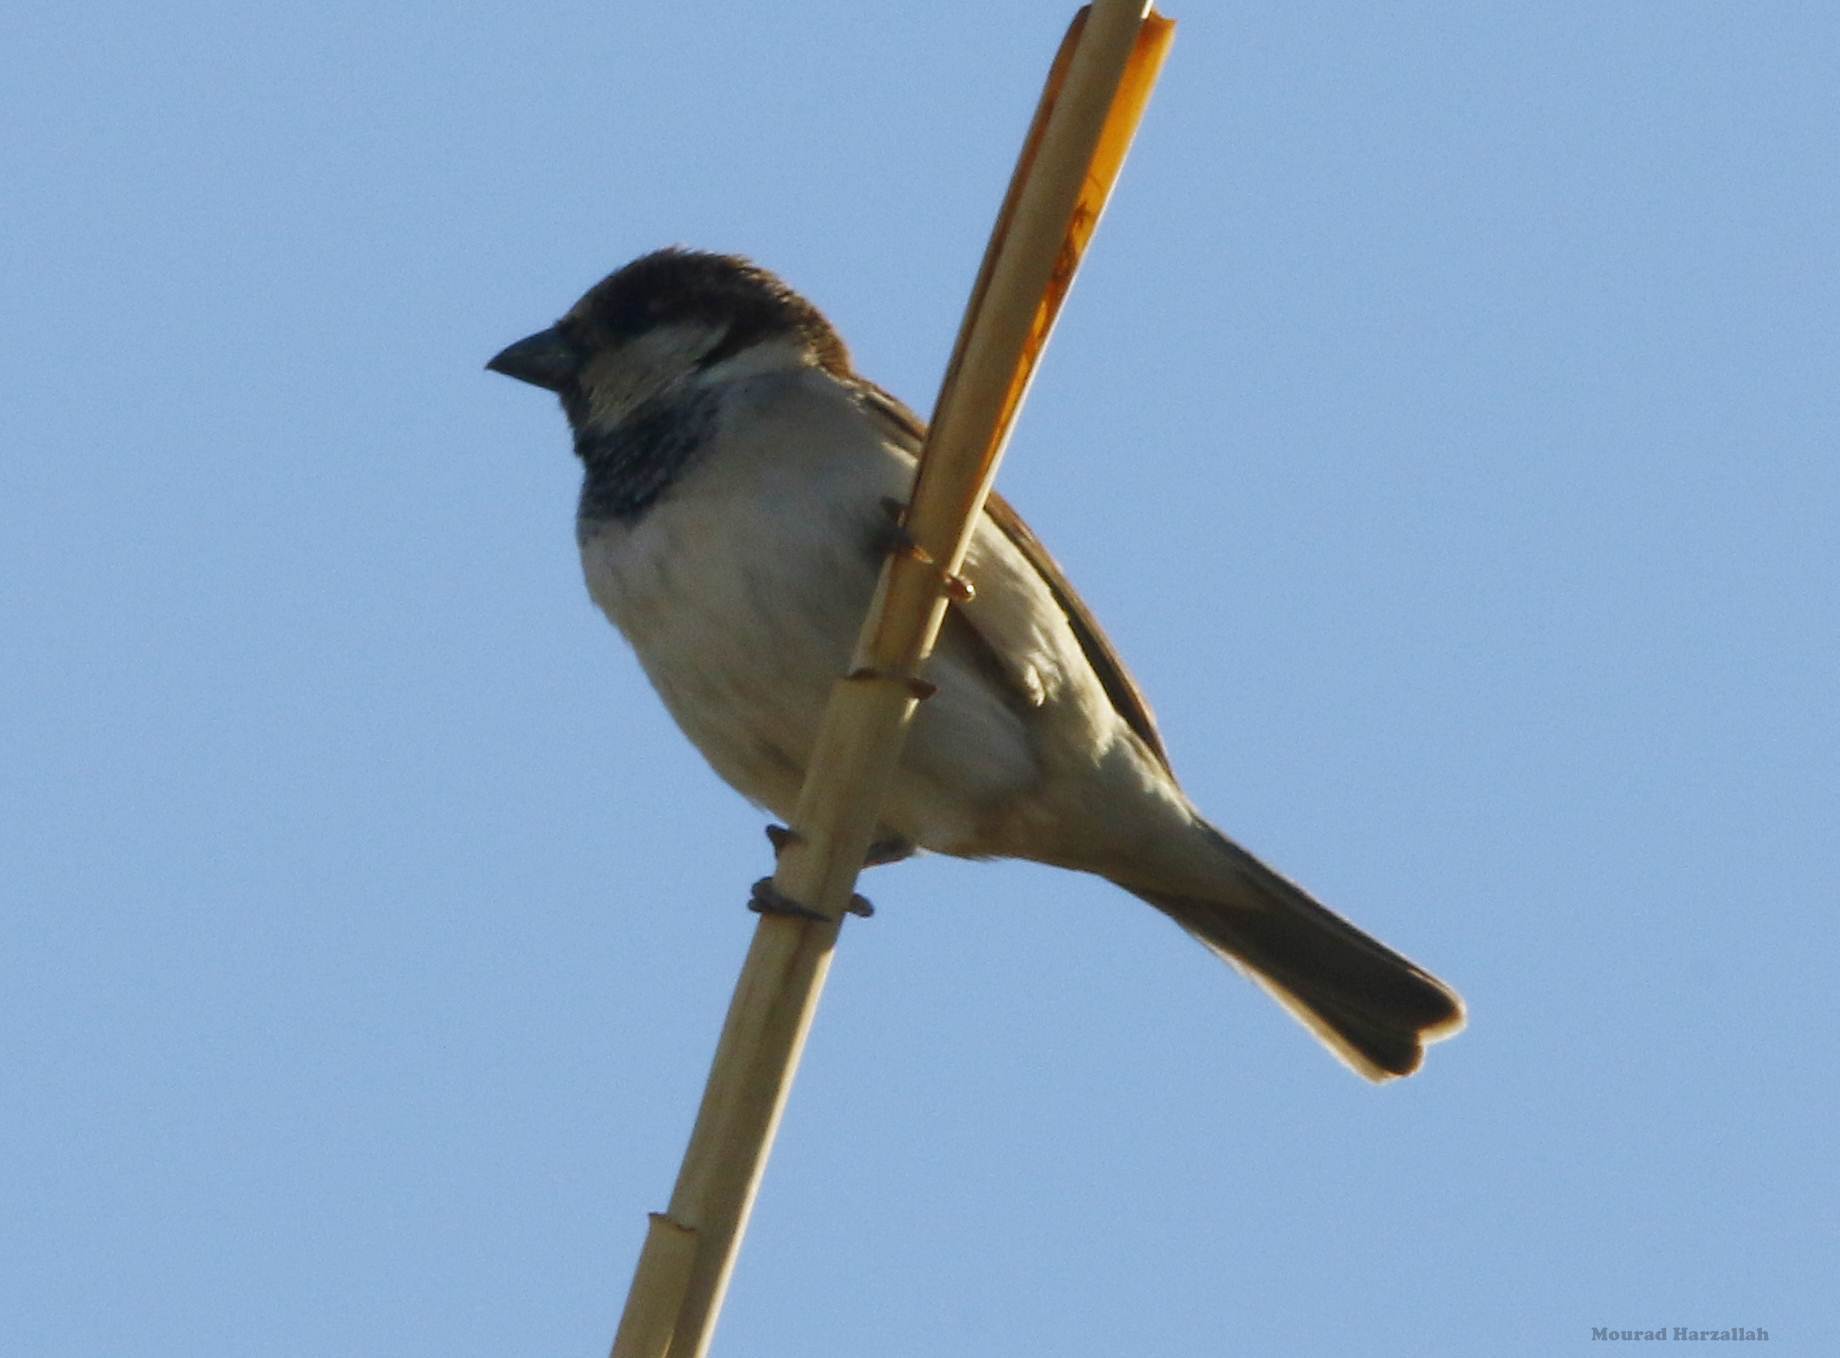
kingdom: Animalia
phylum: Chordata
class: Aves
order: Passeriformes
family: Passeridae
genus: Passer
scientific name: Passer domesticus
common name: House sparrow
